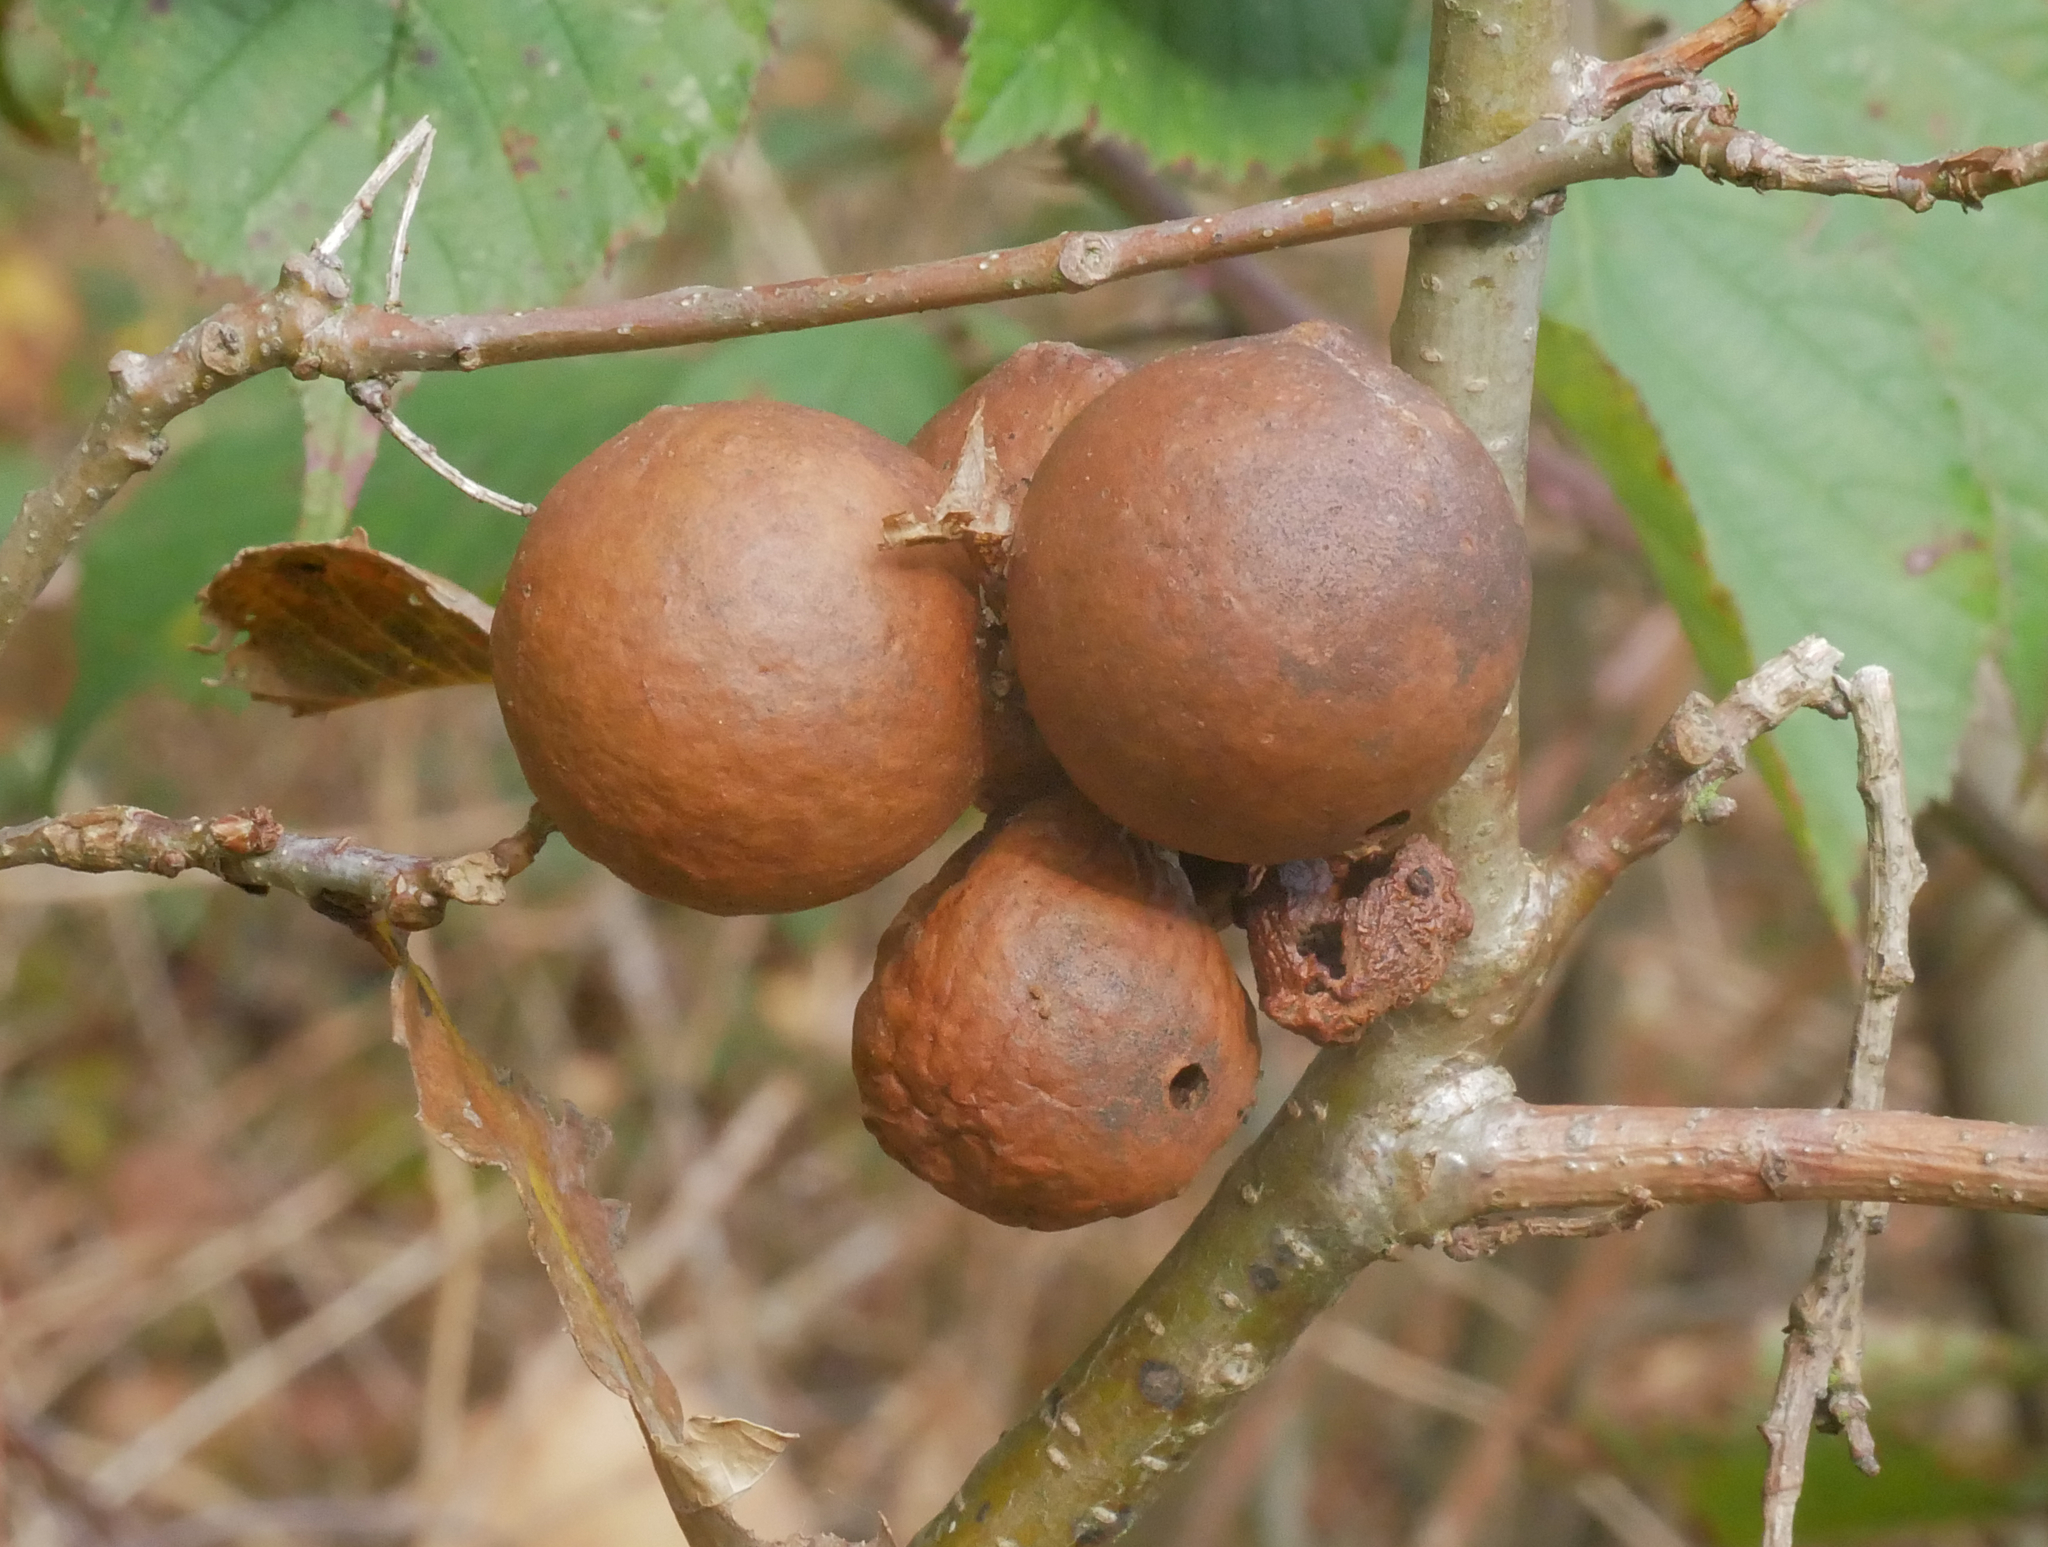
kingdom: Animalia
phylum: Arthropoda
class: Insecta
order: Hymenoptera
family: Cynipidae
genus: Andricus
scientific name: Andricus kollari
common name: Marble gall
